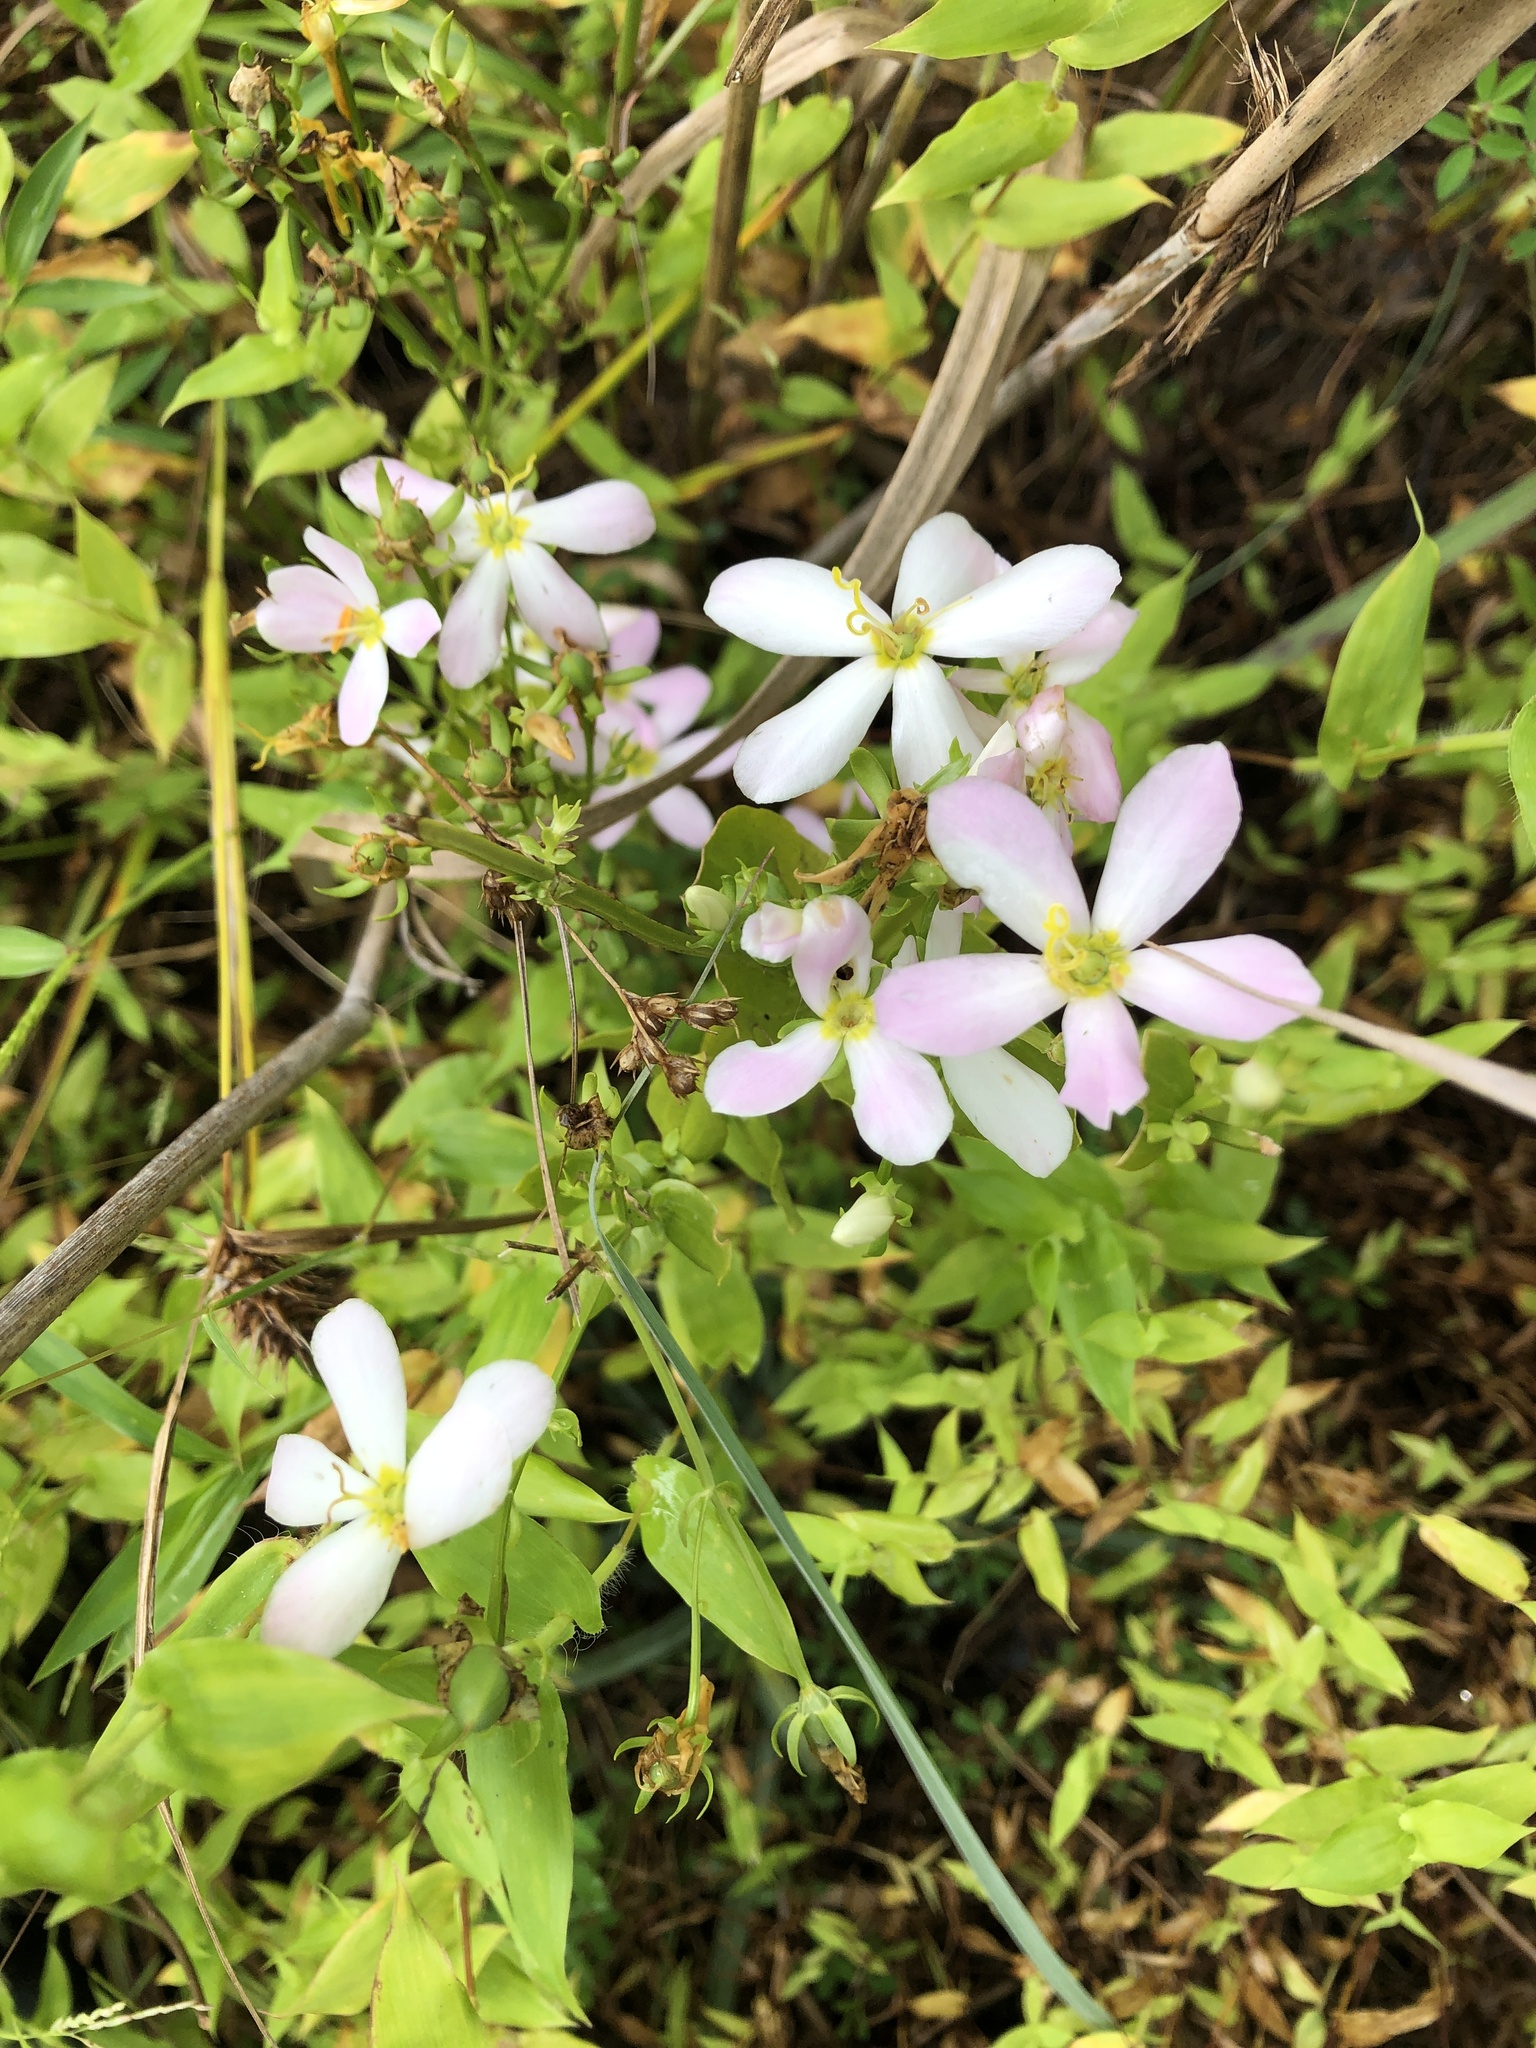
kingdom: Plantae
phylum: Tracheophyta
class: Magnoliopsida
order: Gentianales
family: Gentianaceae
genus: Sabatia
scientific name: Sabatia angularis
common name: Rose-pink
